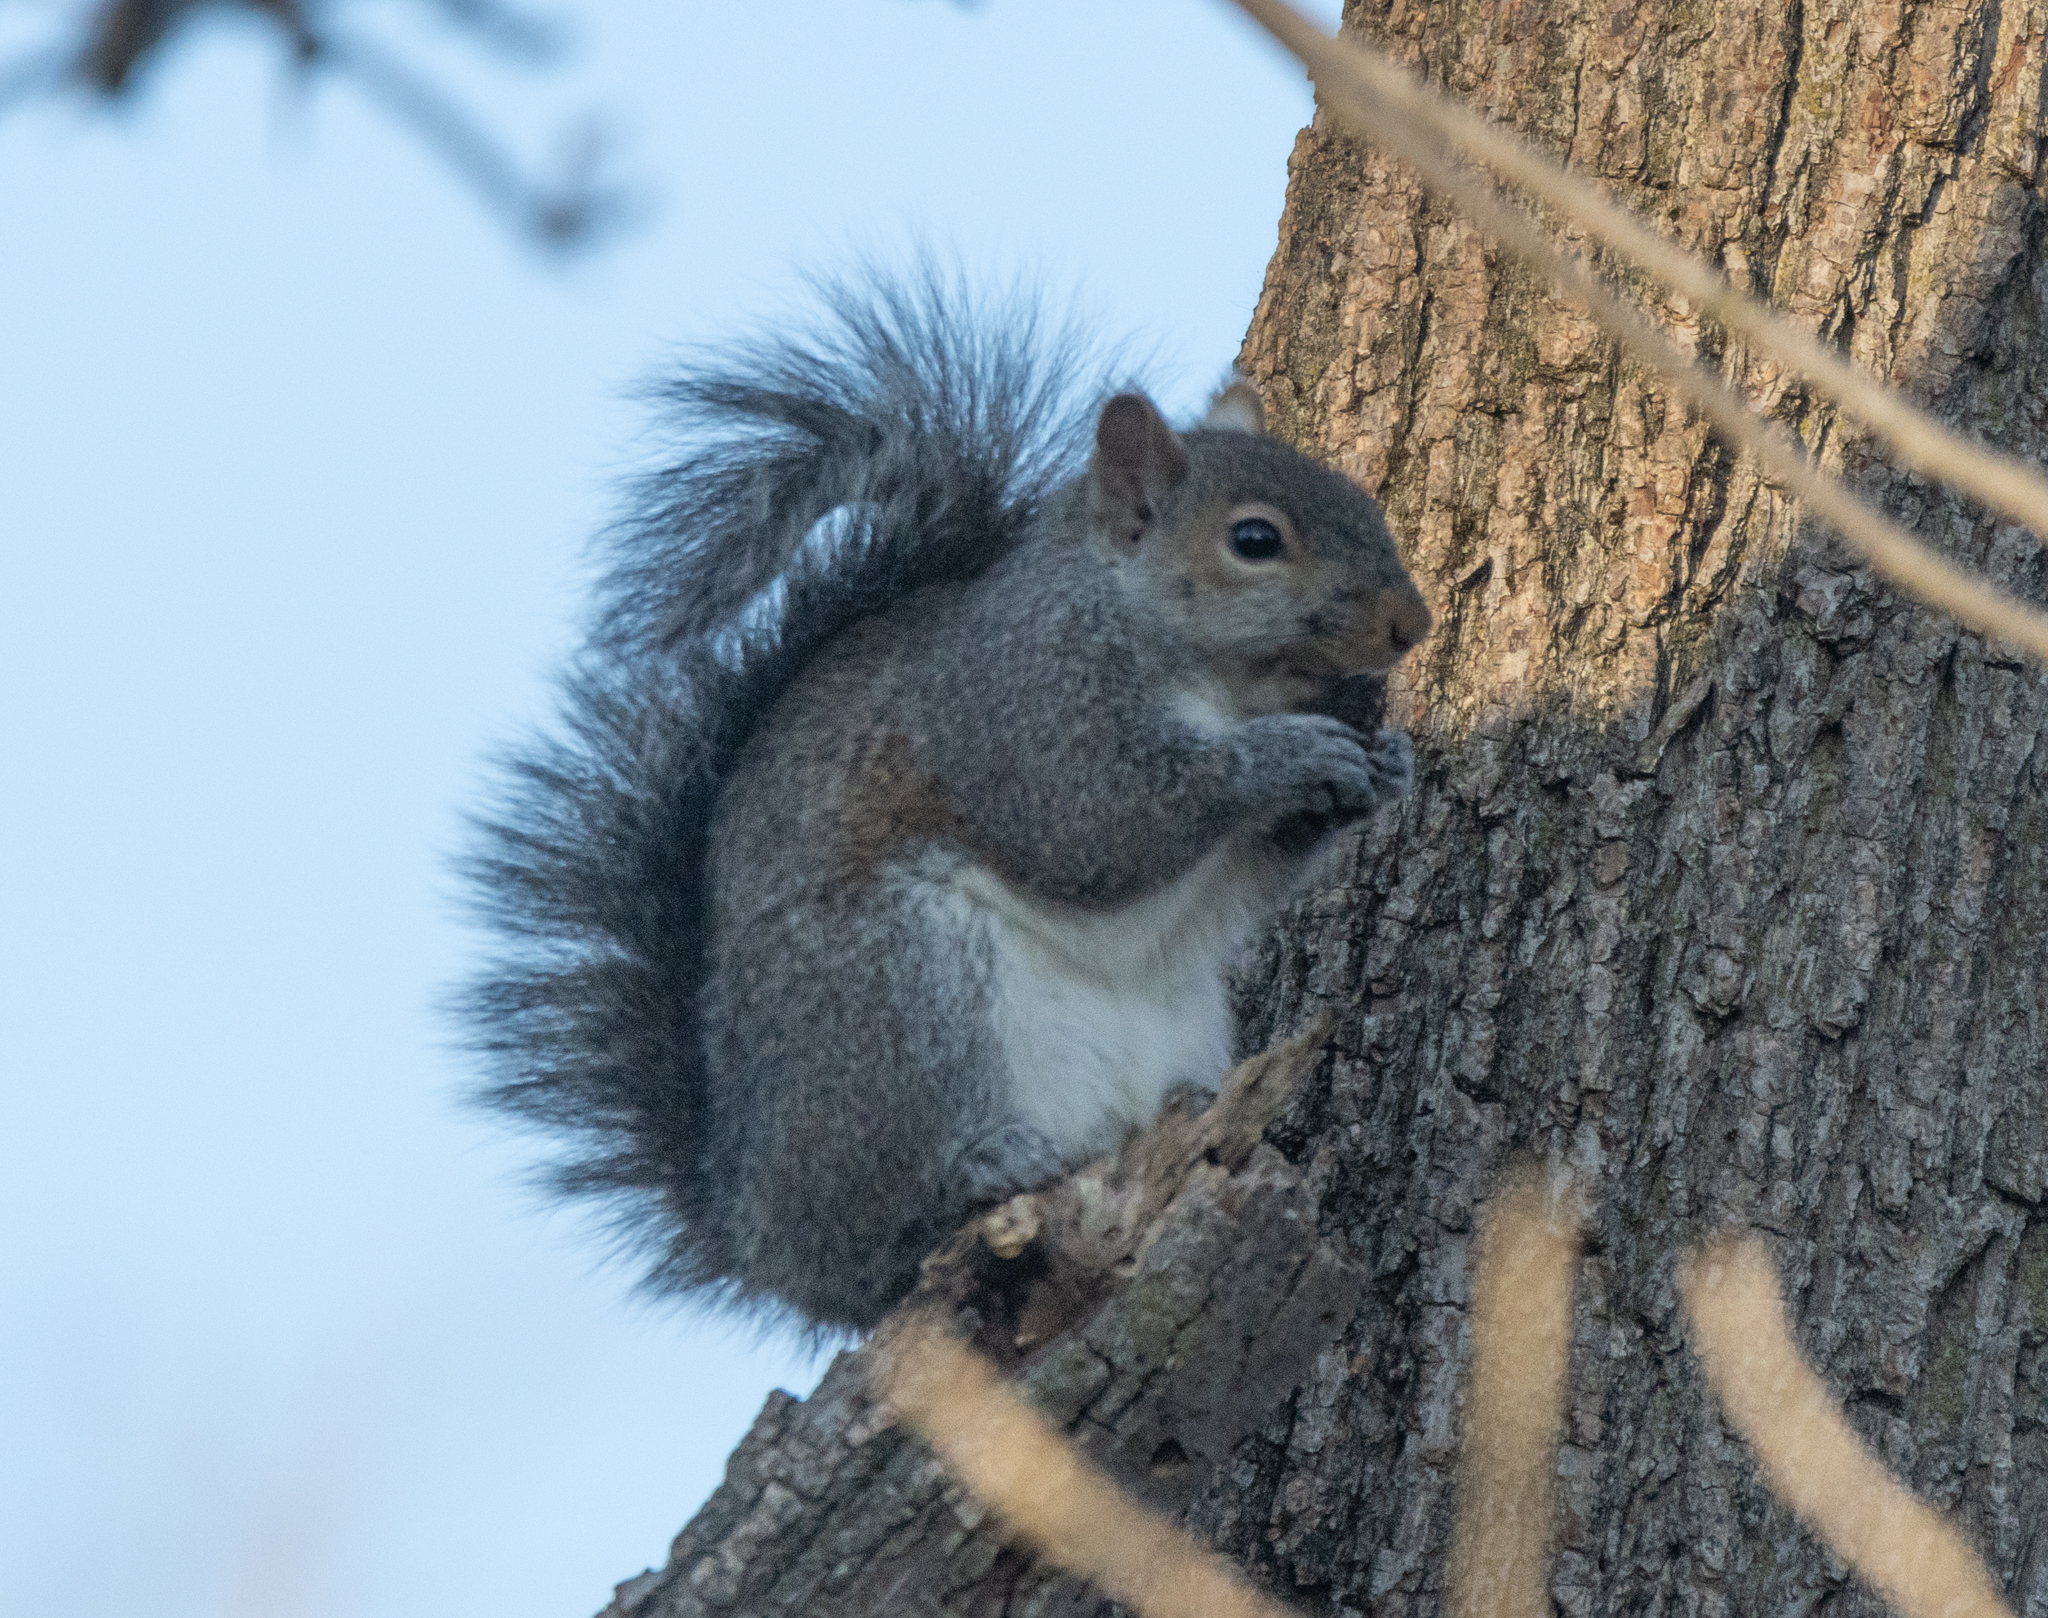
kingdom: Animalia
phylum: Chordata
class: Mammalia
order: Rodentia
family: Sciuridae
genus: Sciurus
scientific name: Sciurus carolinensis
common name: Eastern gray squirrel
